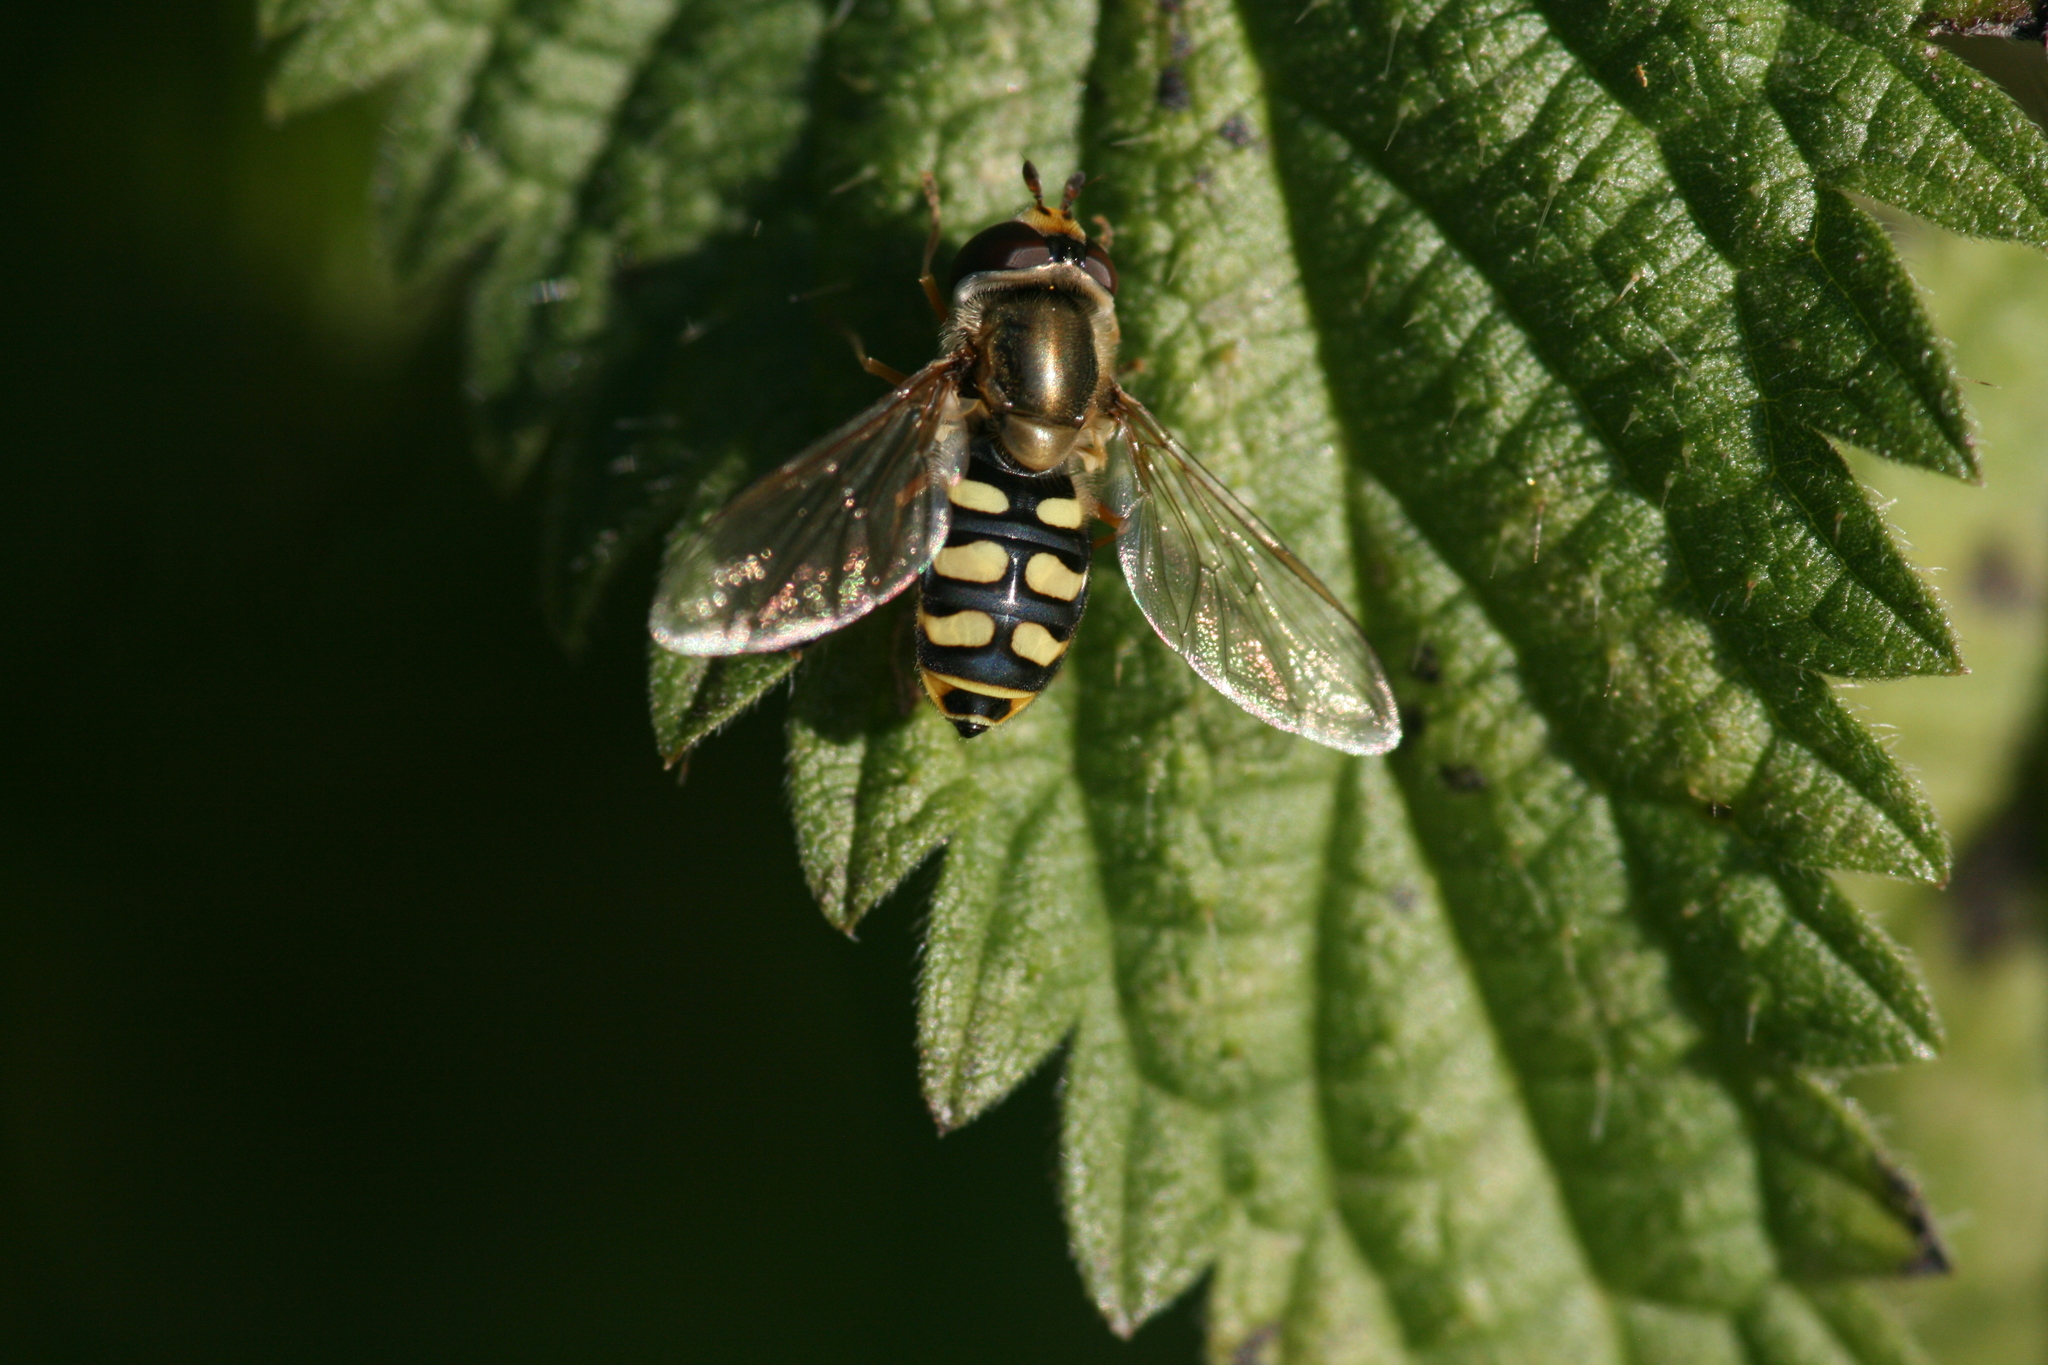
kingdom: Animalia
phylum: Arthropoda
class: Insecta
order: Diptera
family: Syrphidae
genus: Eupeodes
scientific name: Eupeodes corollae
